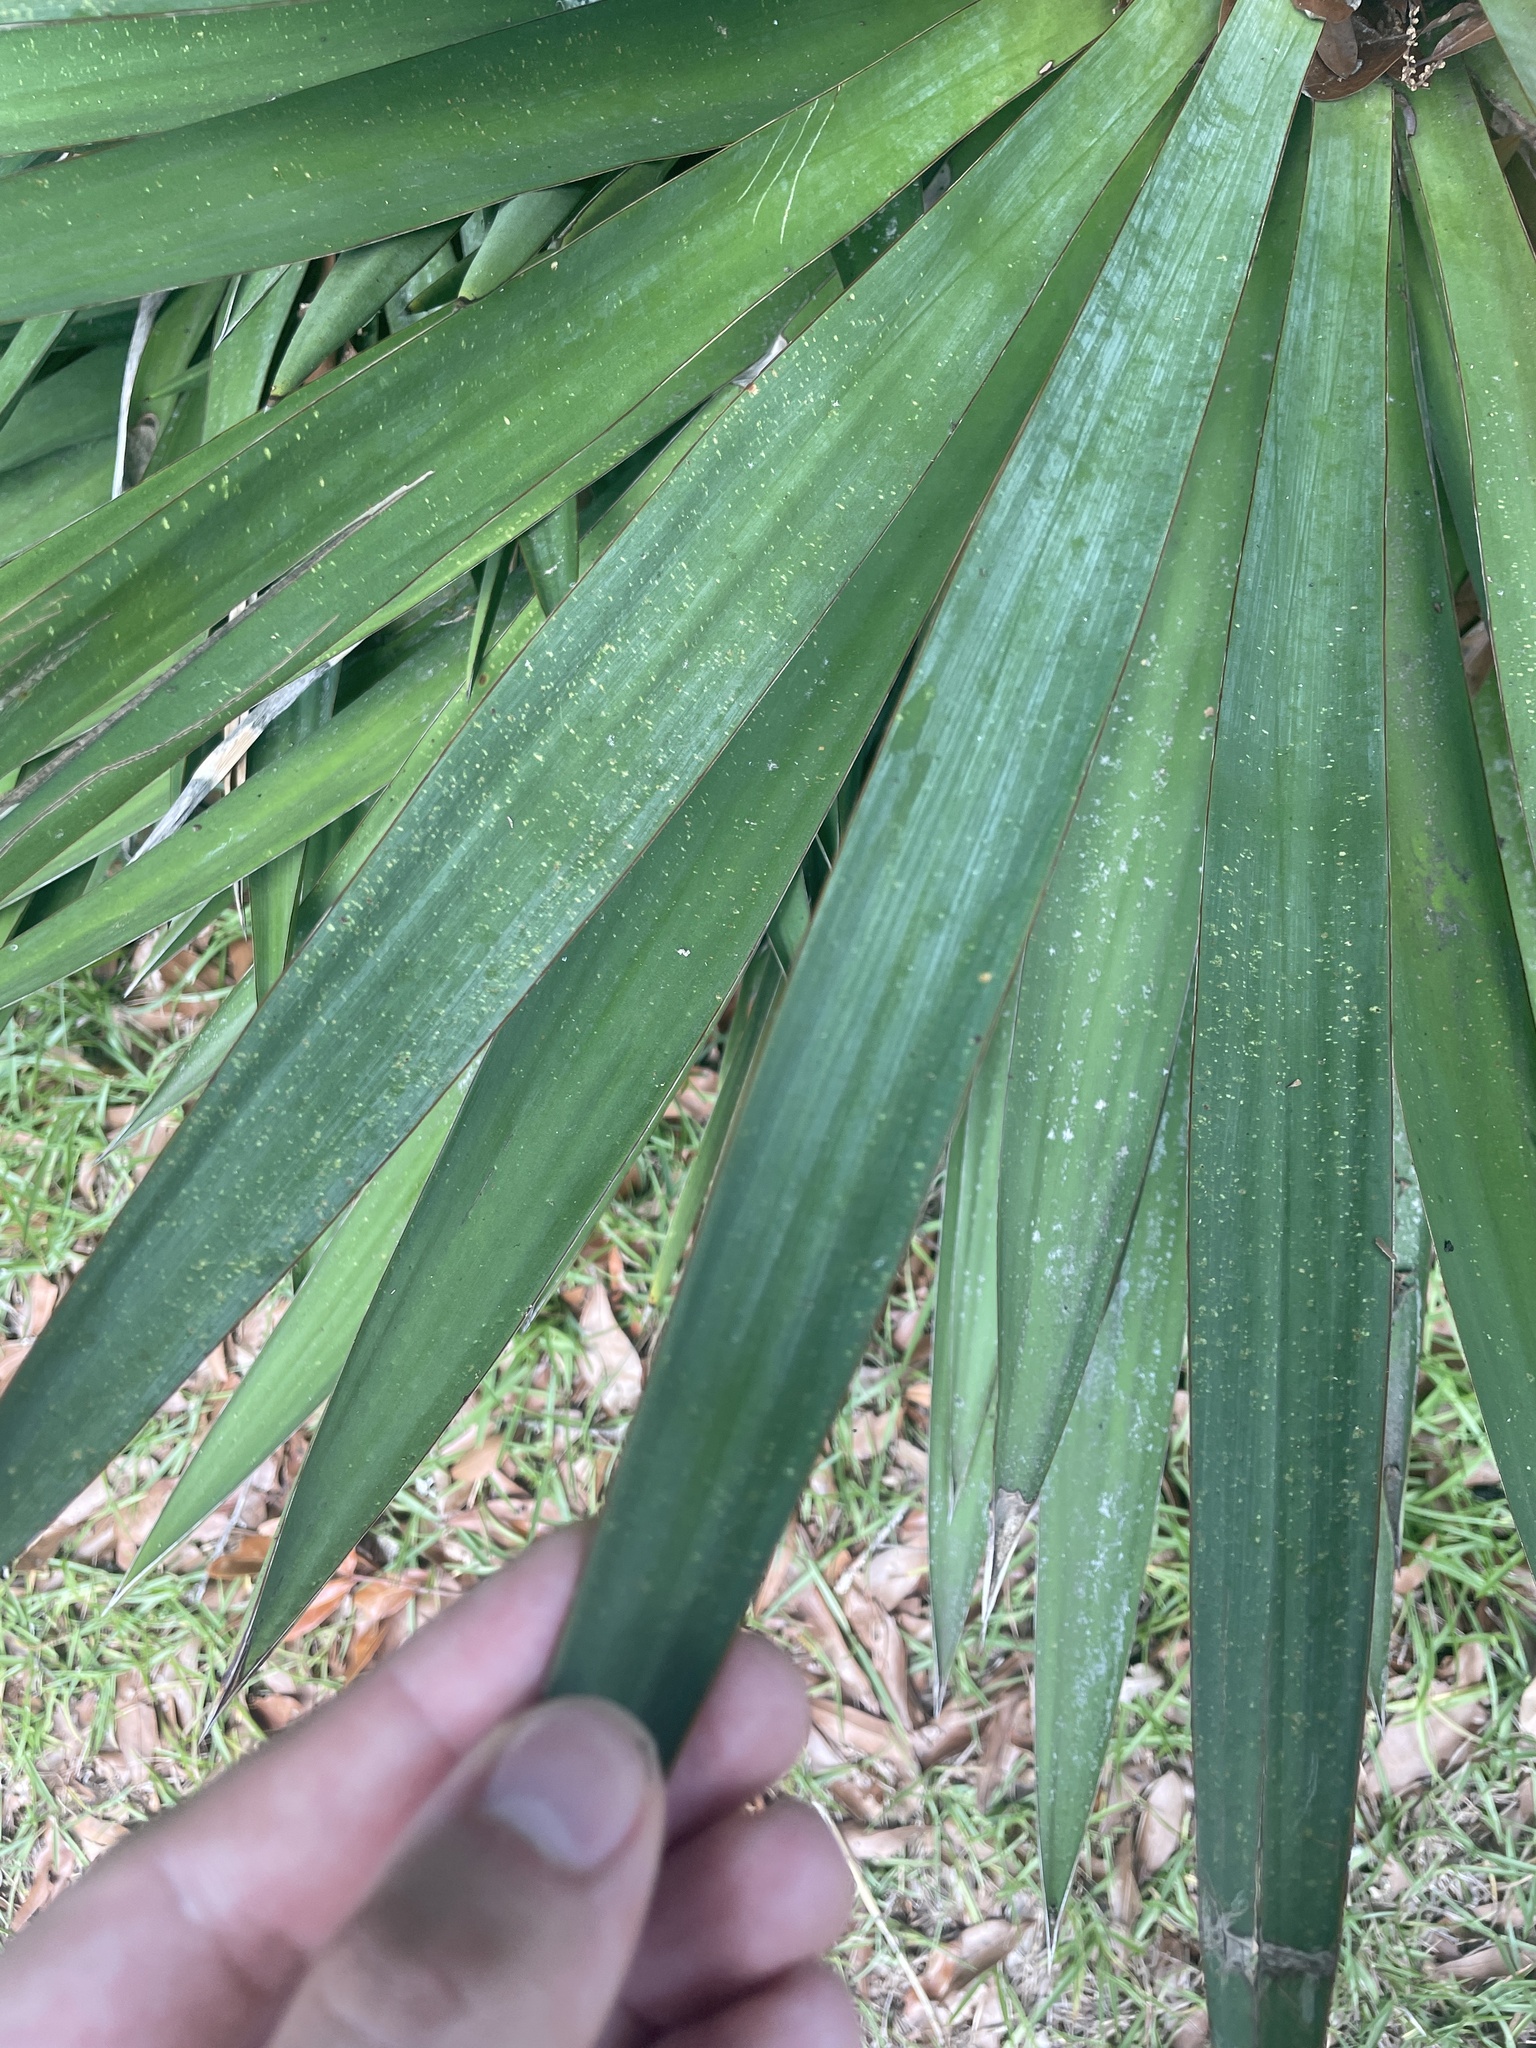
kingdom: Plantae
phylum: Tracheophyta
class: Liliopsida
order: Asparagales
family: Asparagaceae
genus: Yucca
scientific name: Yucca gloriosa
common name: Spanish-dagger
